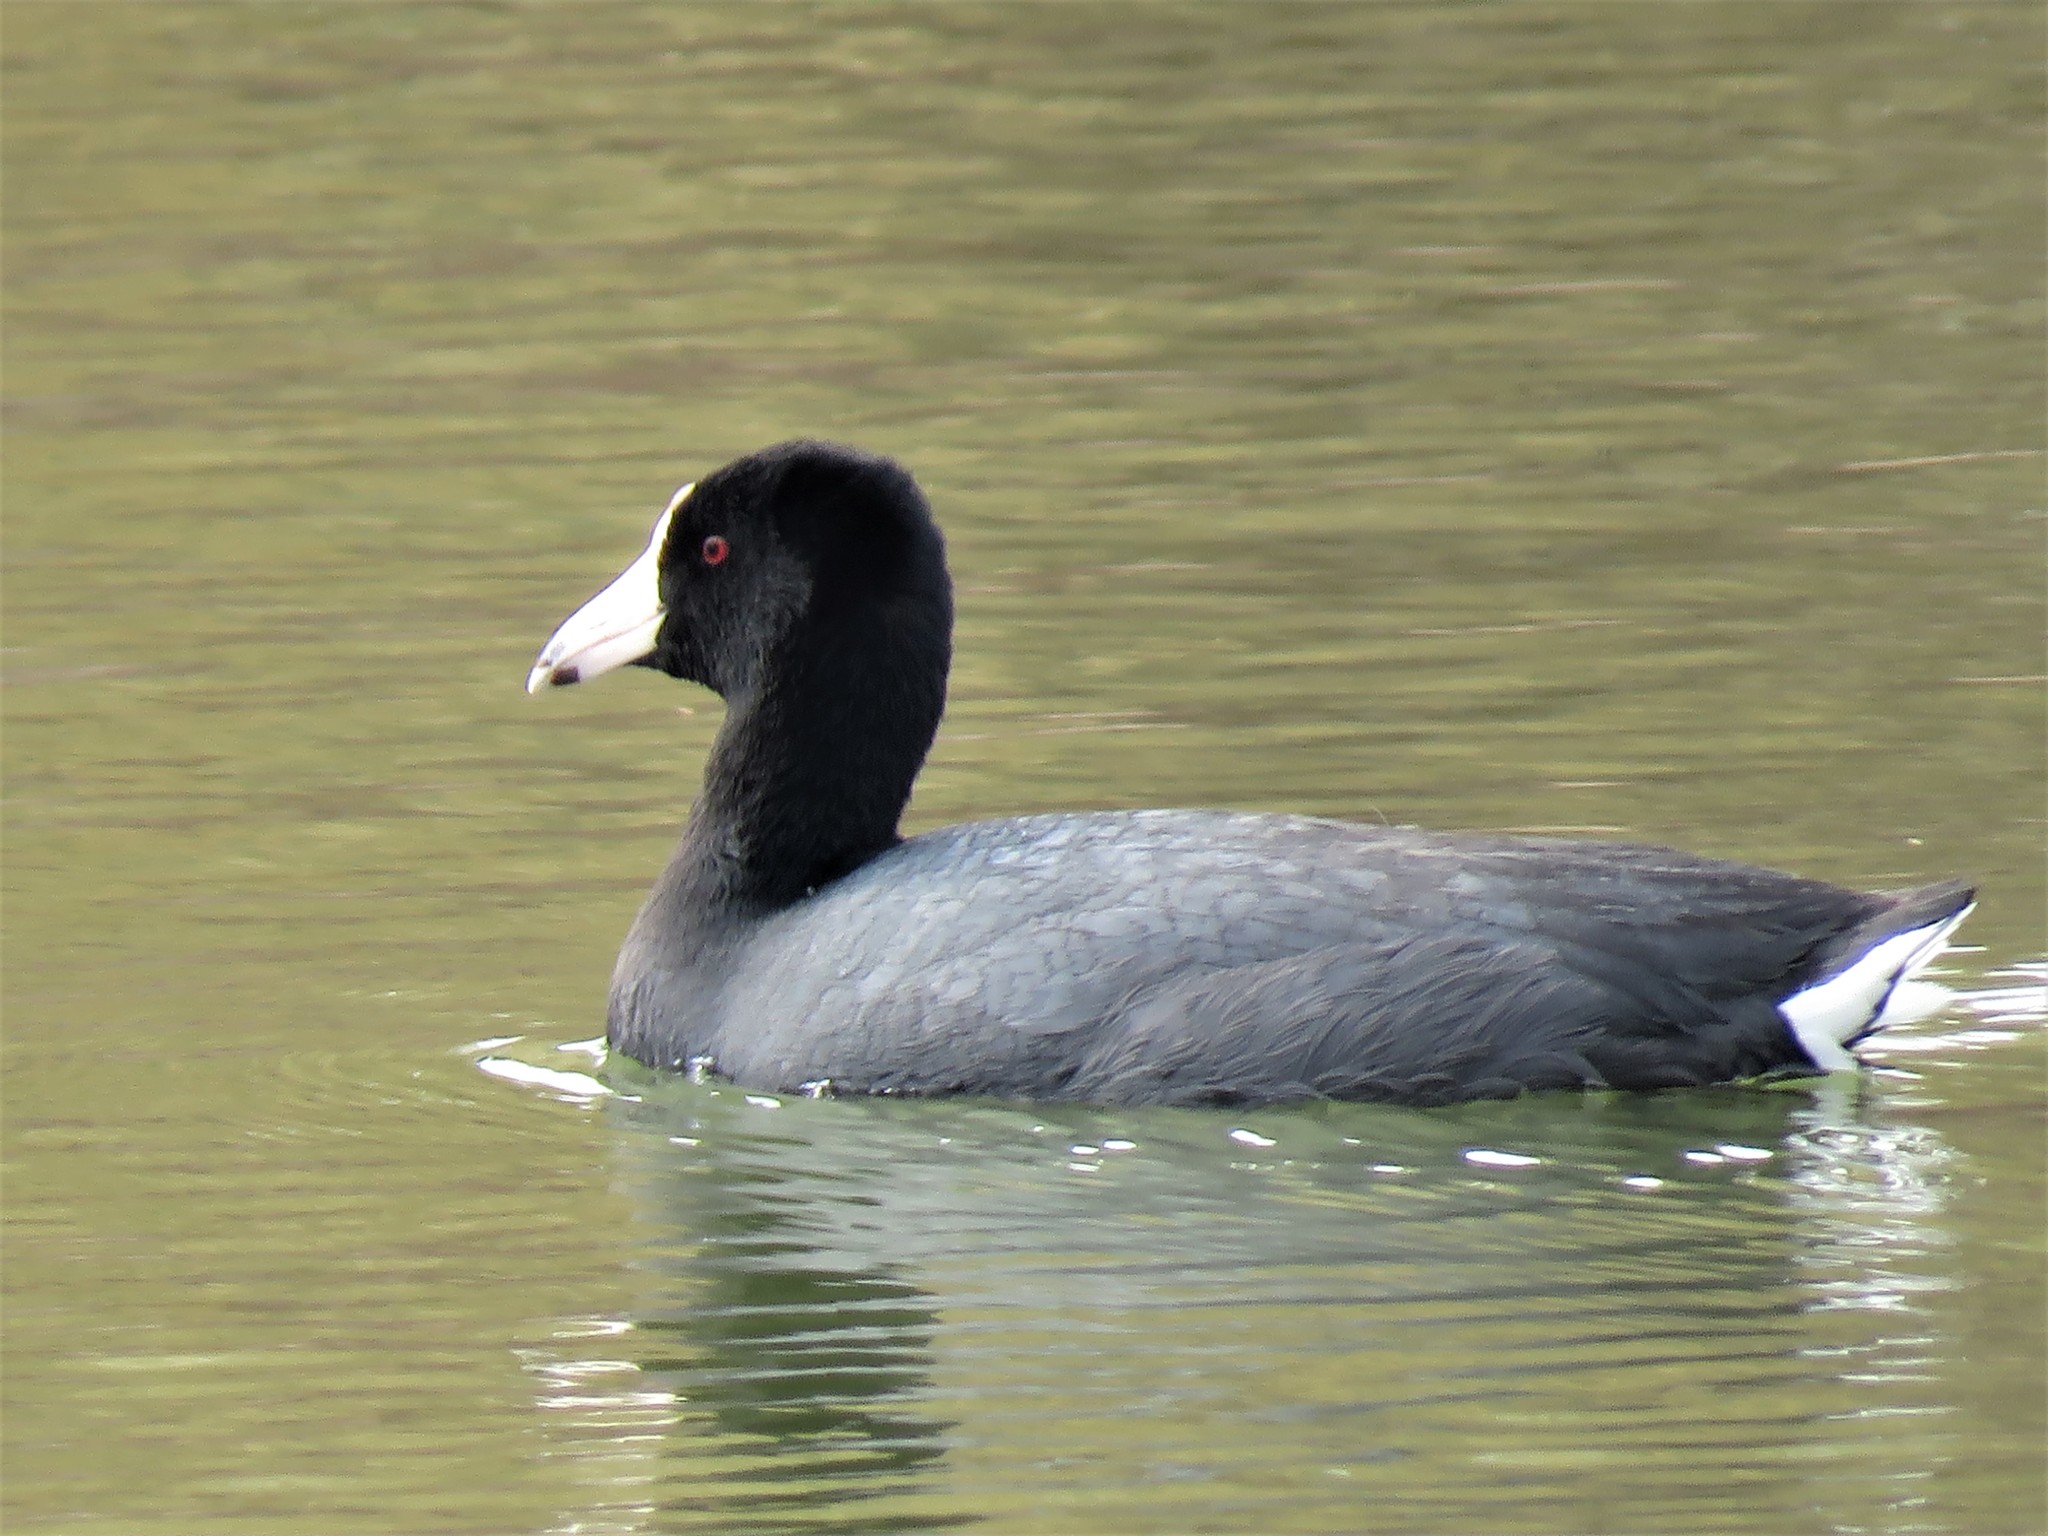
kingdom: Animalia
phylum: Chordata
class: Aves
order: Gruiformes
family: Rallidae
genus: Fulica
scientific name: Fulica americana
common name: American coot
